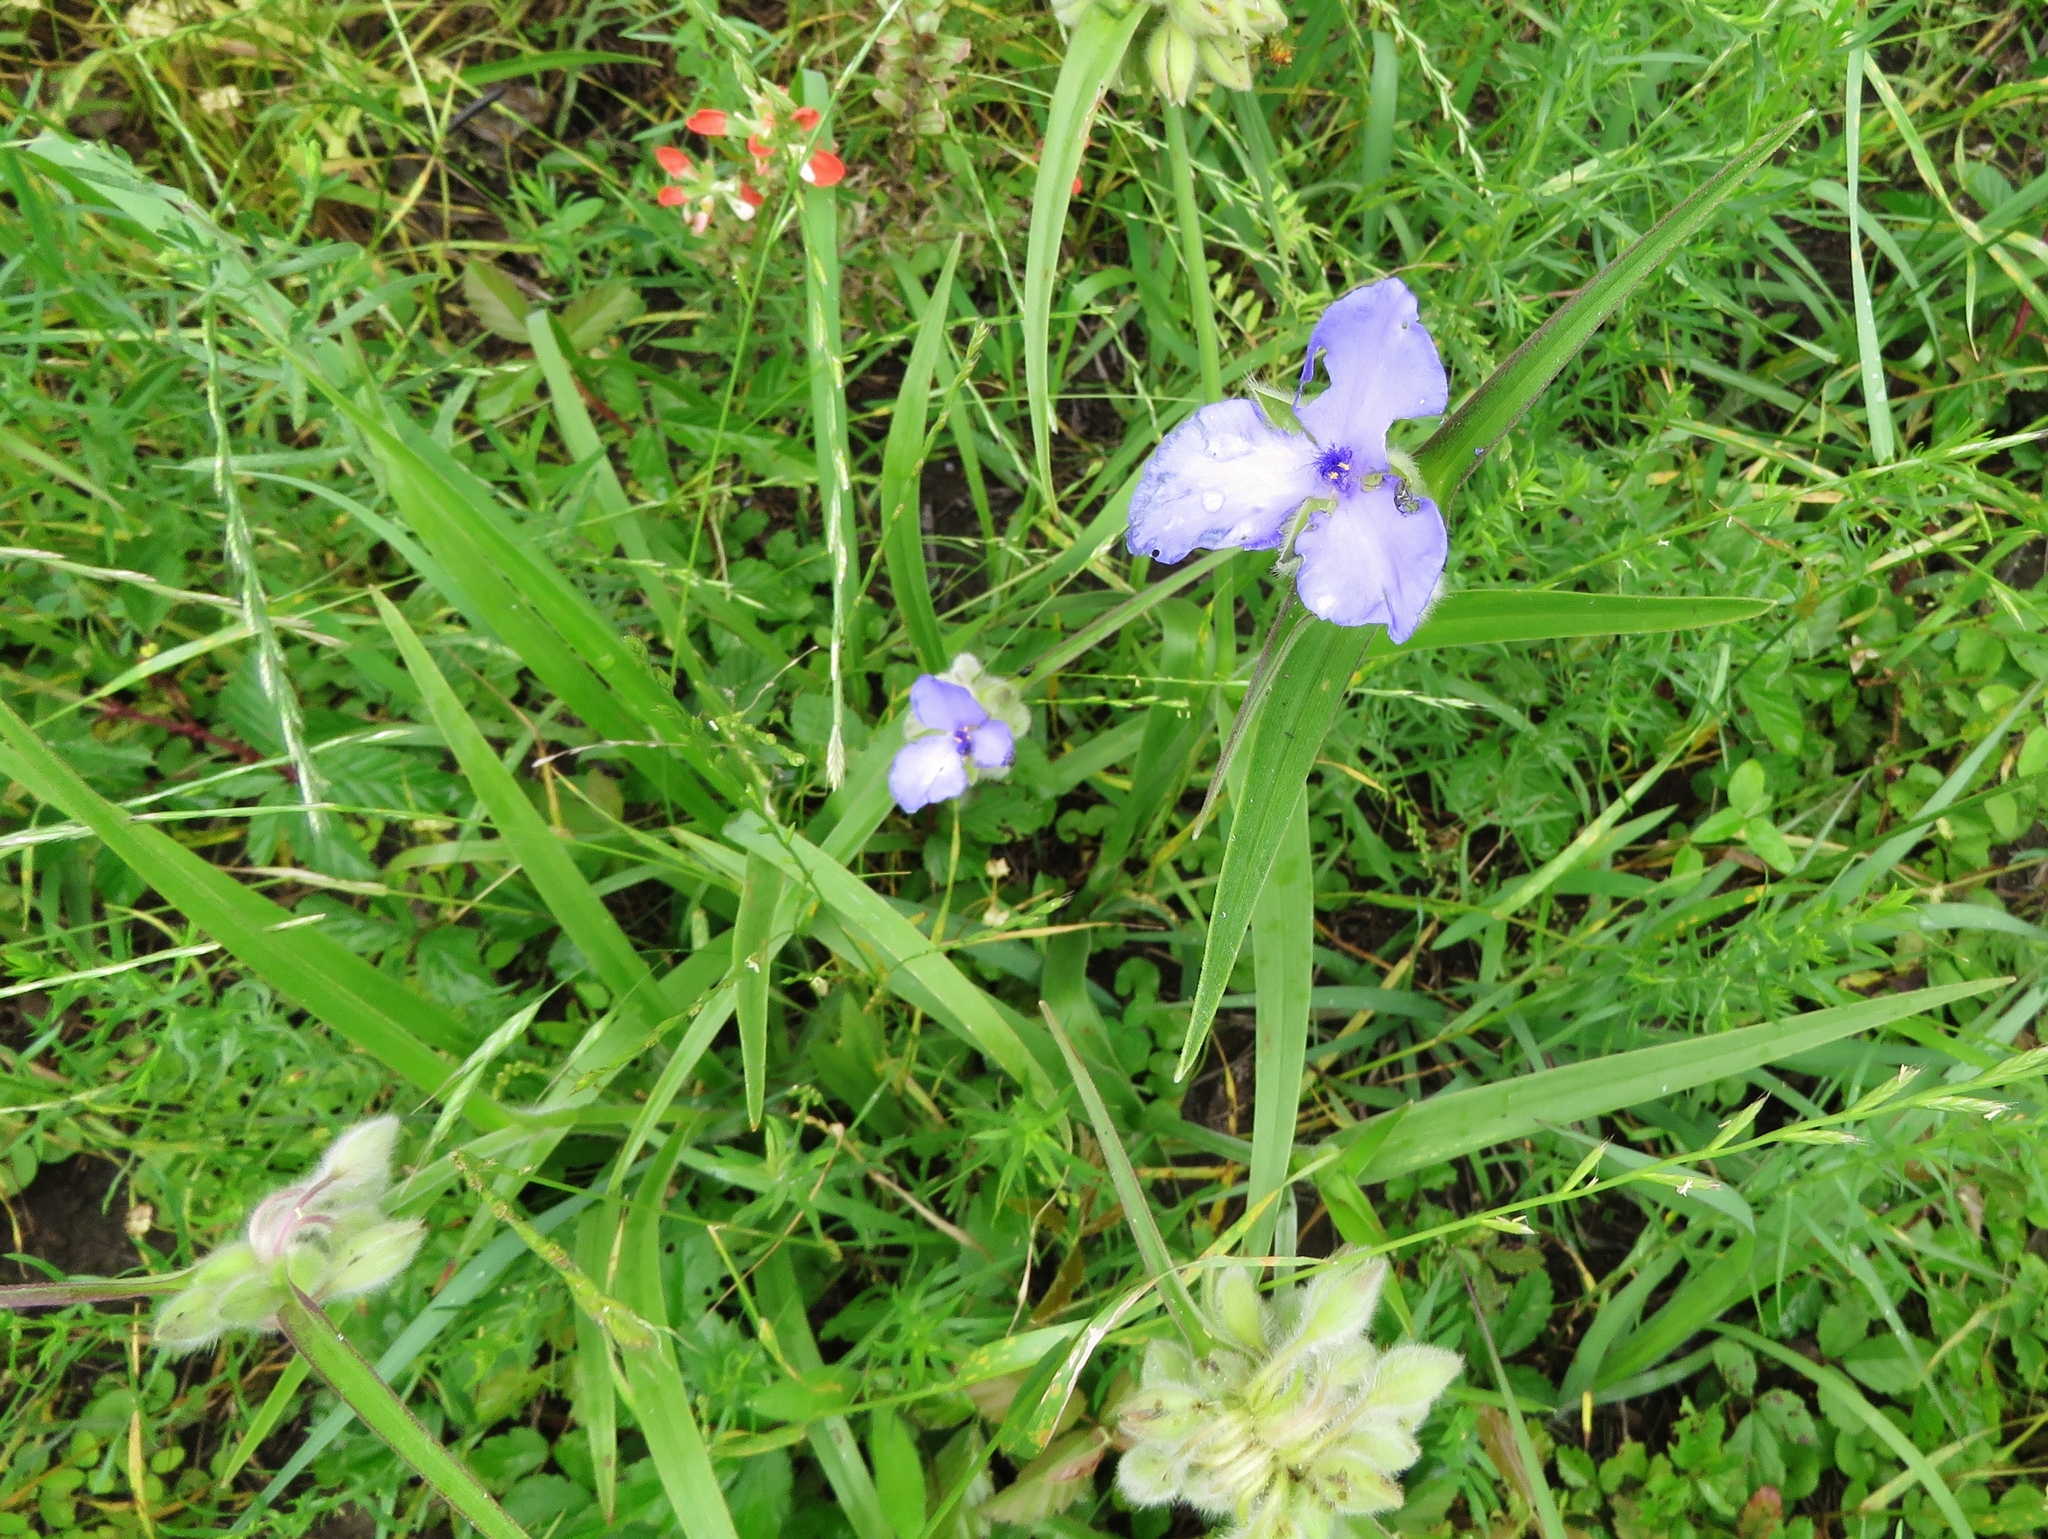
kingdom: Plantae
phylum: Tracheophyta
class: Liliopsida
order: Commelinales
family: Commelinaceae
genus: Tradescantia
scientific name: Tradescantia occidentalis
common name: Prairie spiderwort
